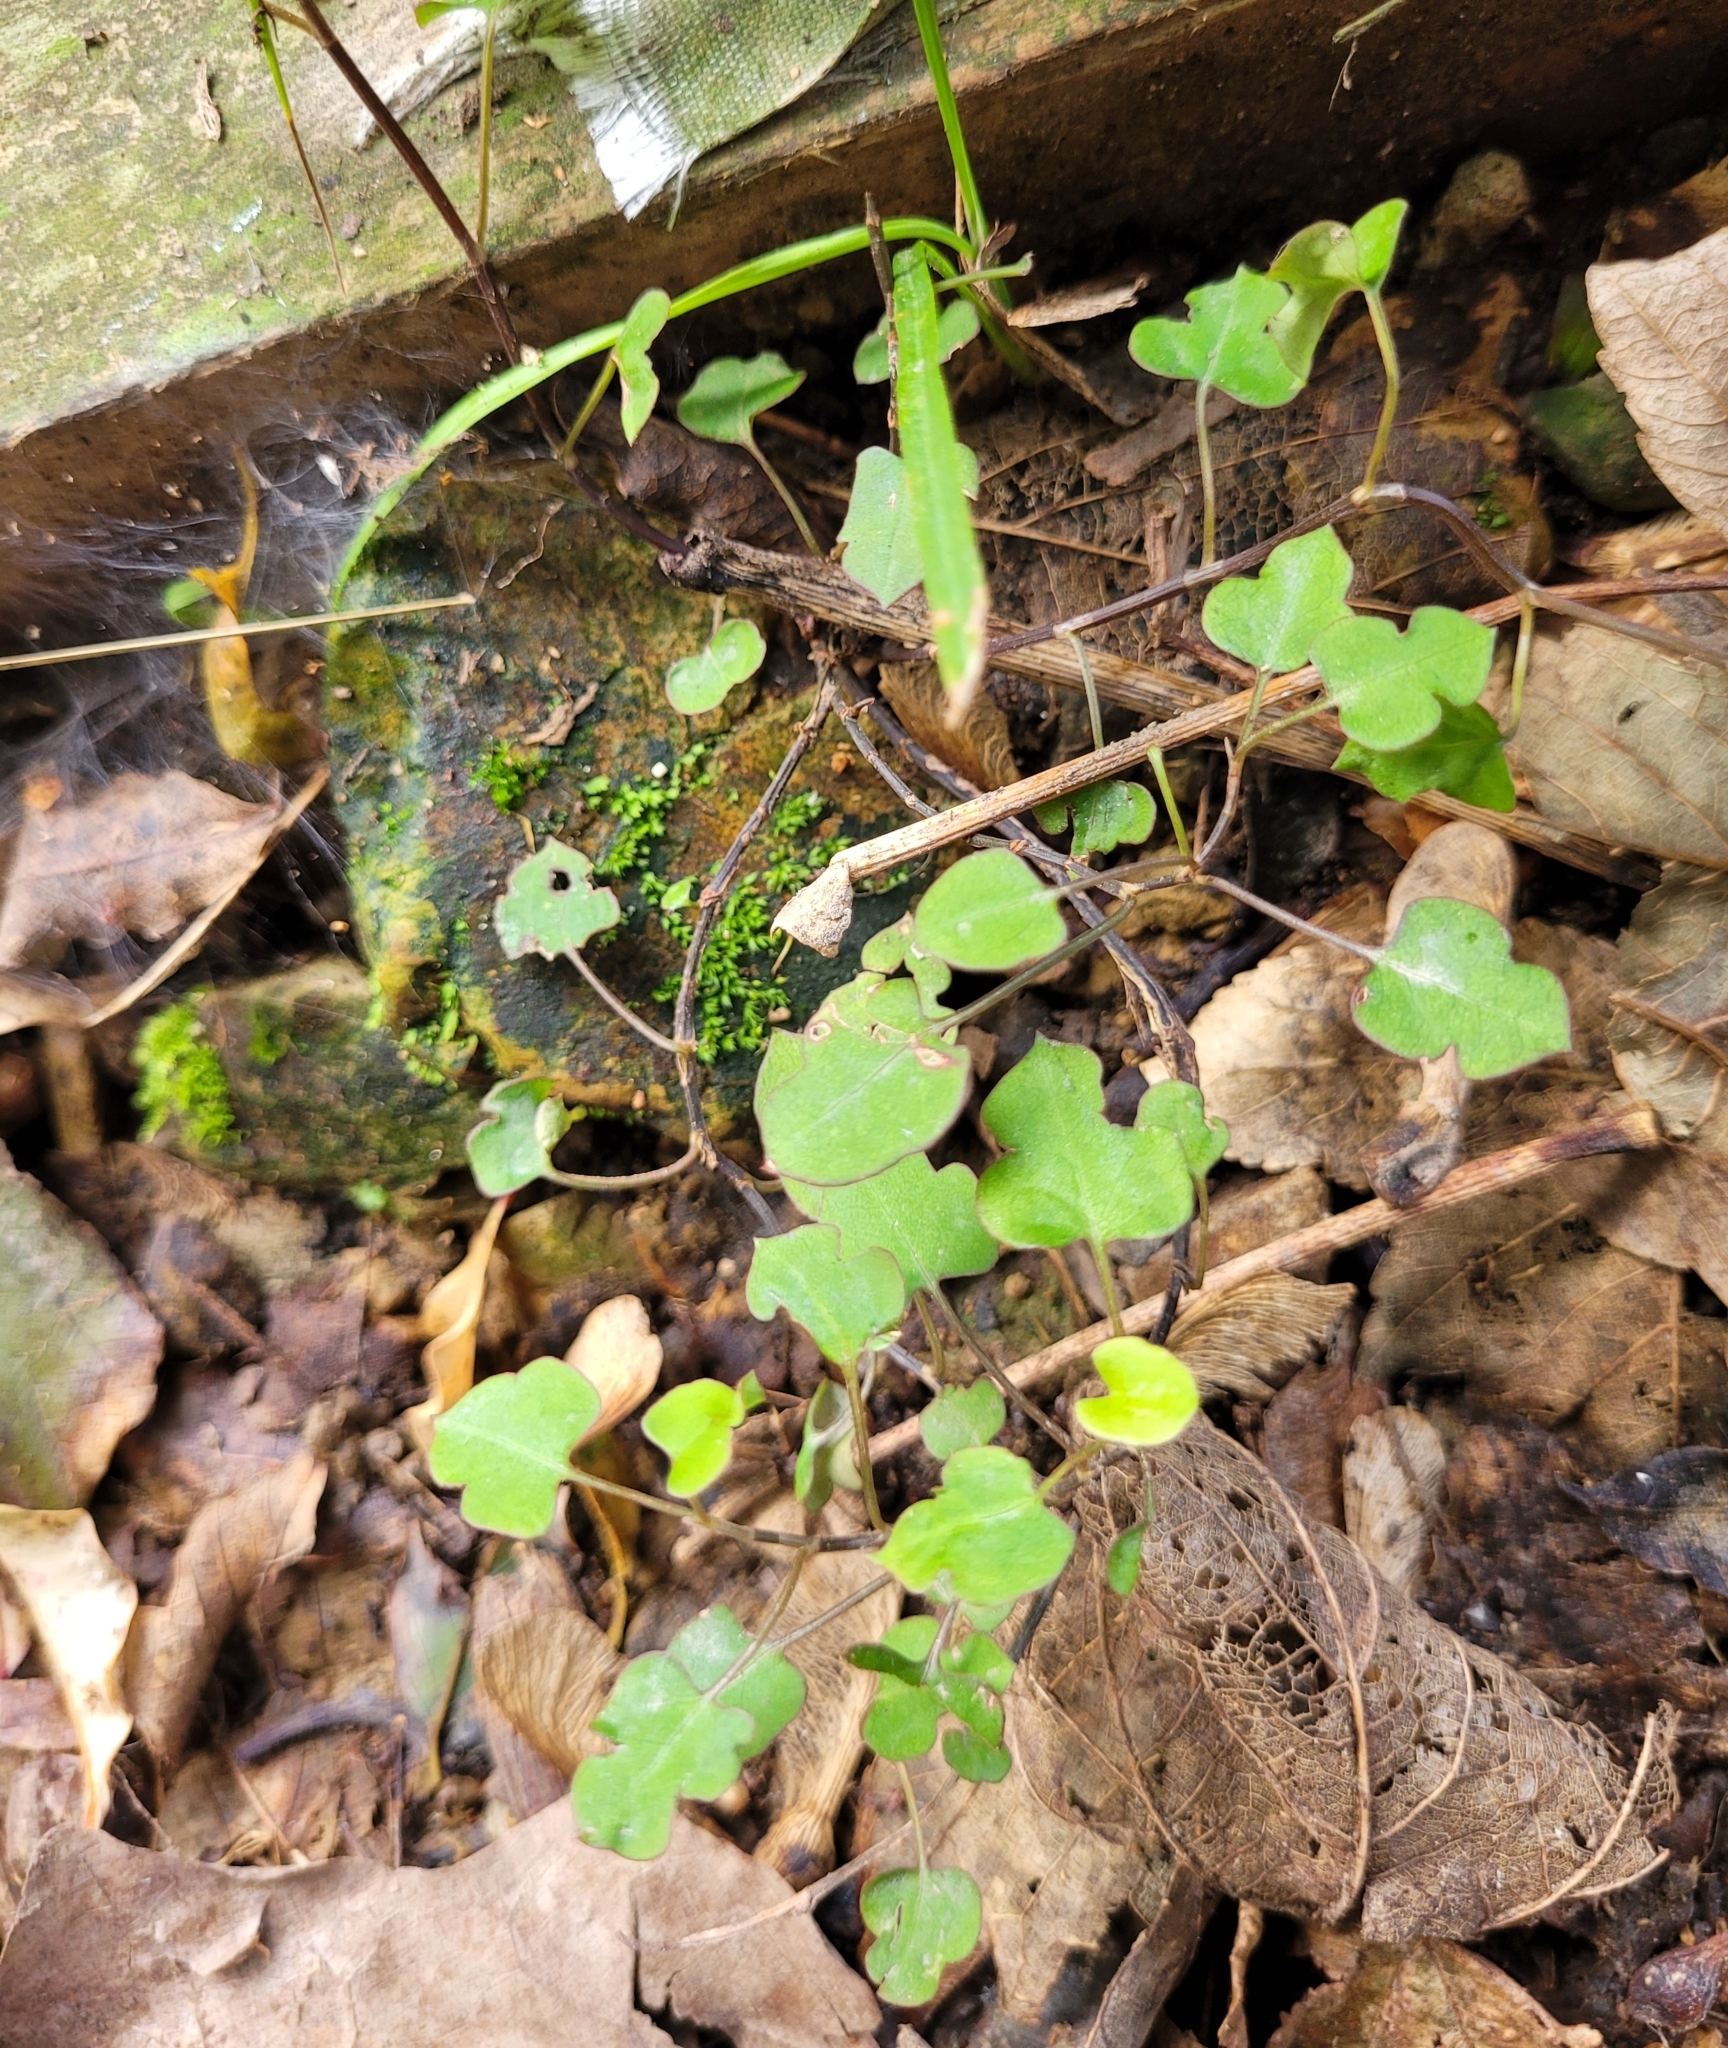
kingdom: Plantae
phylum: Tracheophyta
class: Magnoliopsida
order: Caryophyllales
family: Polygonaceae
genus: Muehlenbeckia
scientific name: Muehlenbeckia australis
